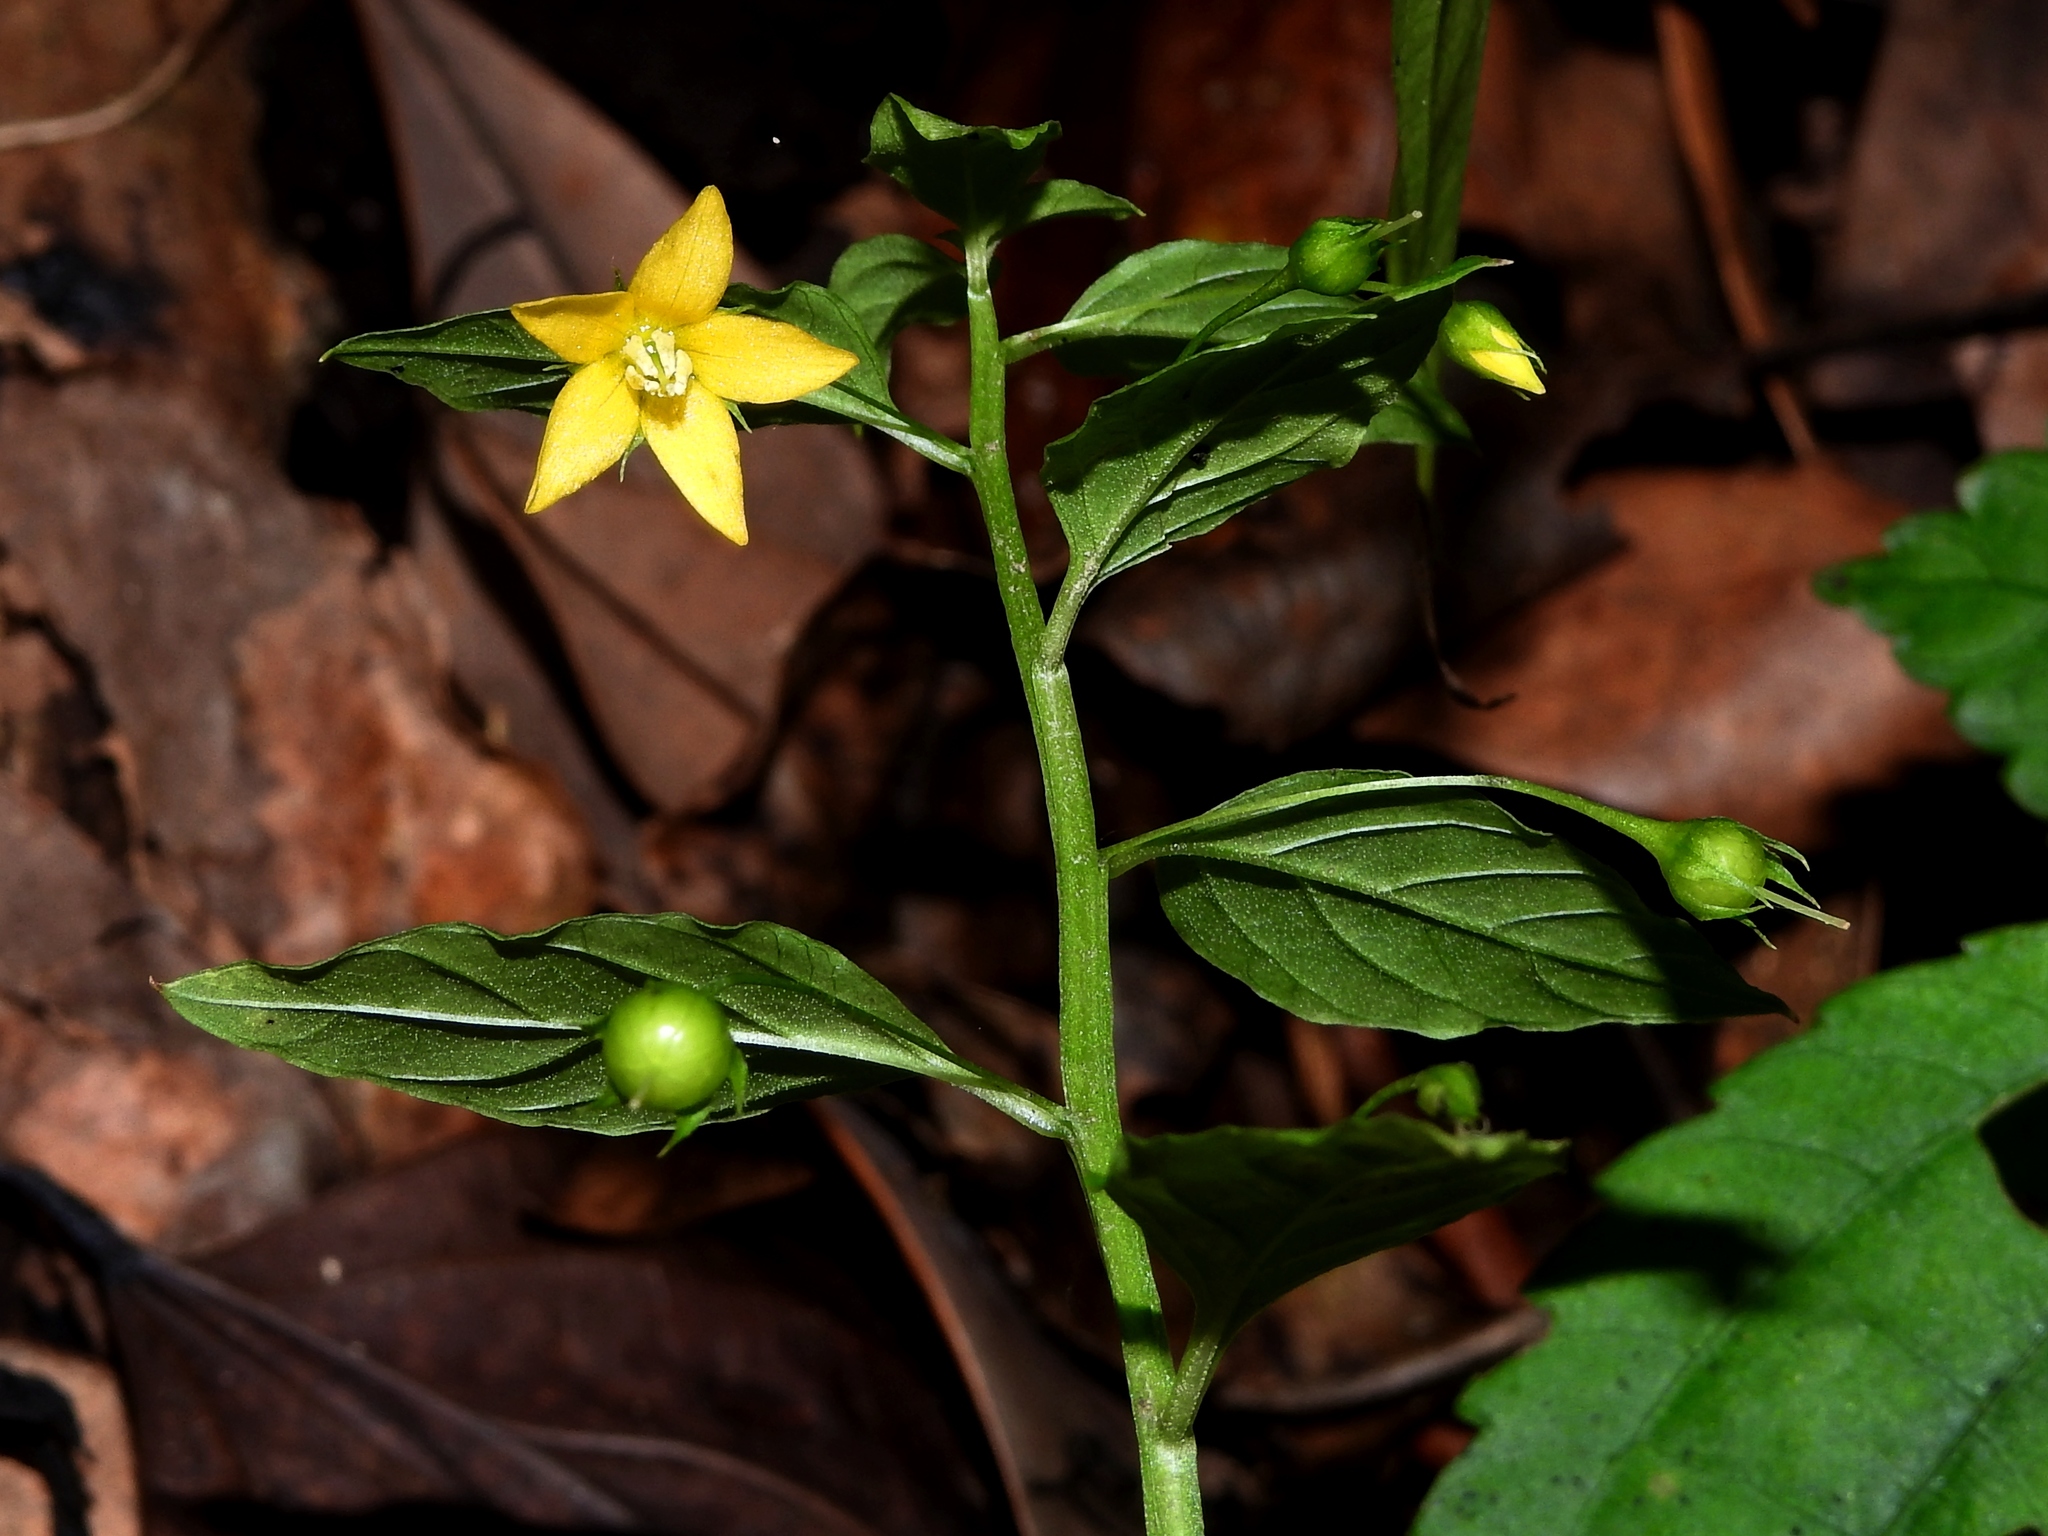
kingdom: Plantae
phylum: Tracheophyta
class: Magnoliopsida
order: Ericales
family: Primulaceae
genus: Lysimachia
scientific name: Lysimachia capillipes
